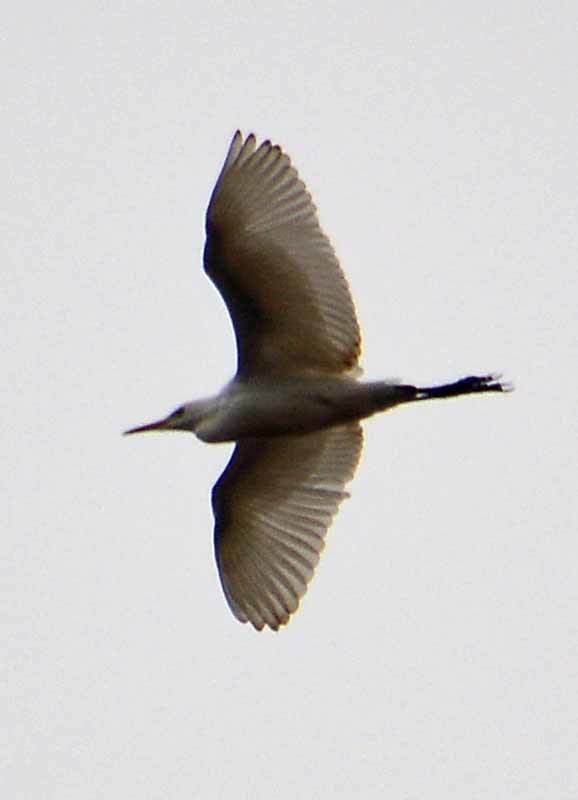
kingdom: Animalia
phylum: Chordata
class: Aves
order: Pelecaniformes
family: Ardeidae
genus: Bubulcus
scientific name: Bubulcus ibis
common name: Cattle egret
